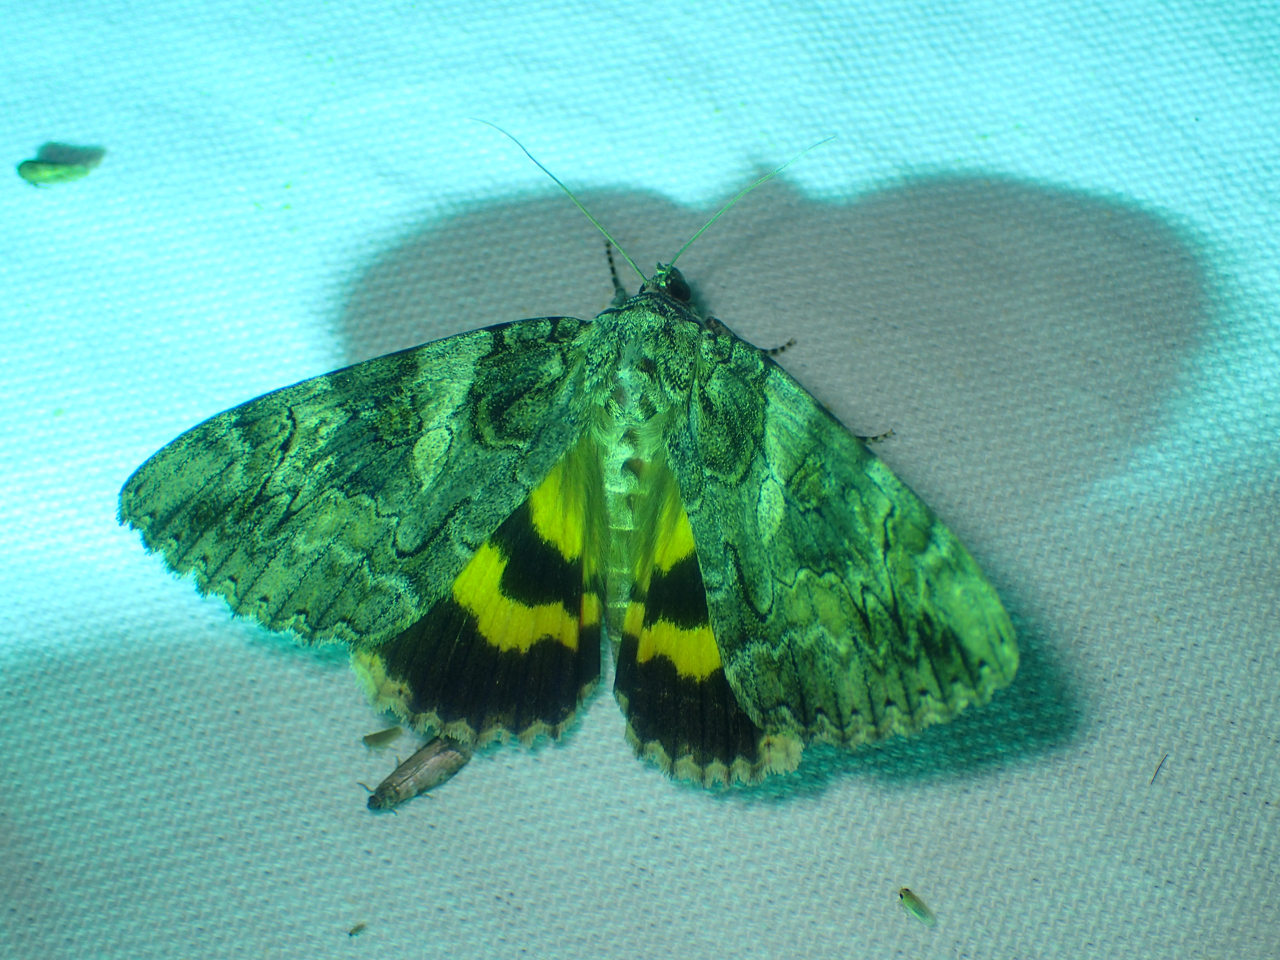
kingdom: Animalia
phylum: Arthropoda
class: Insecta
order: Lepidoptera
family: Erebidae
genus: Catocala
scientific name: Catocala piatrix
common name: The penitent underwing
